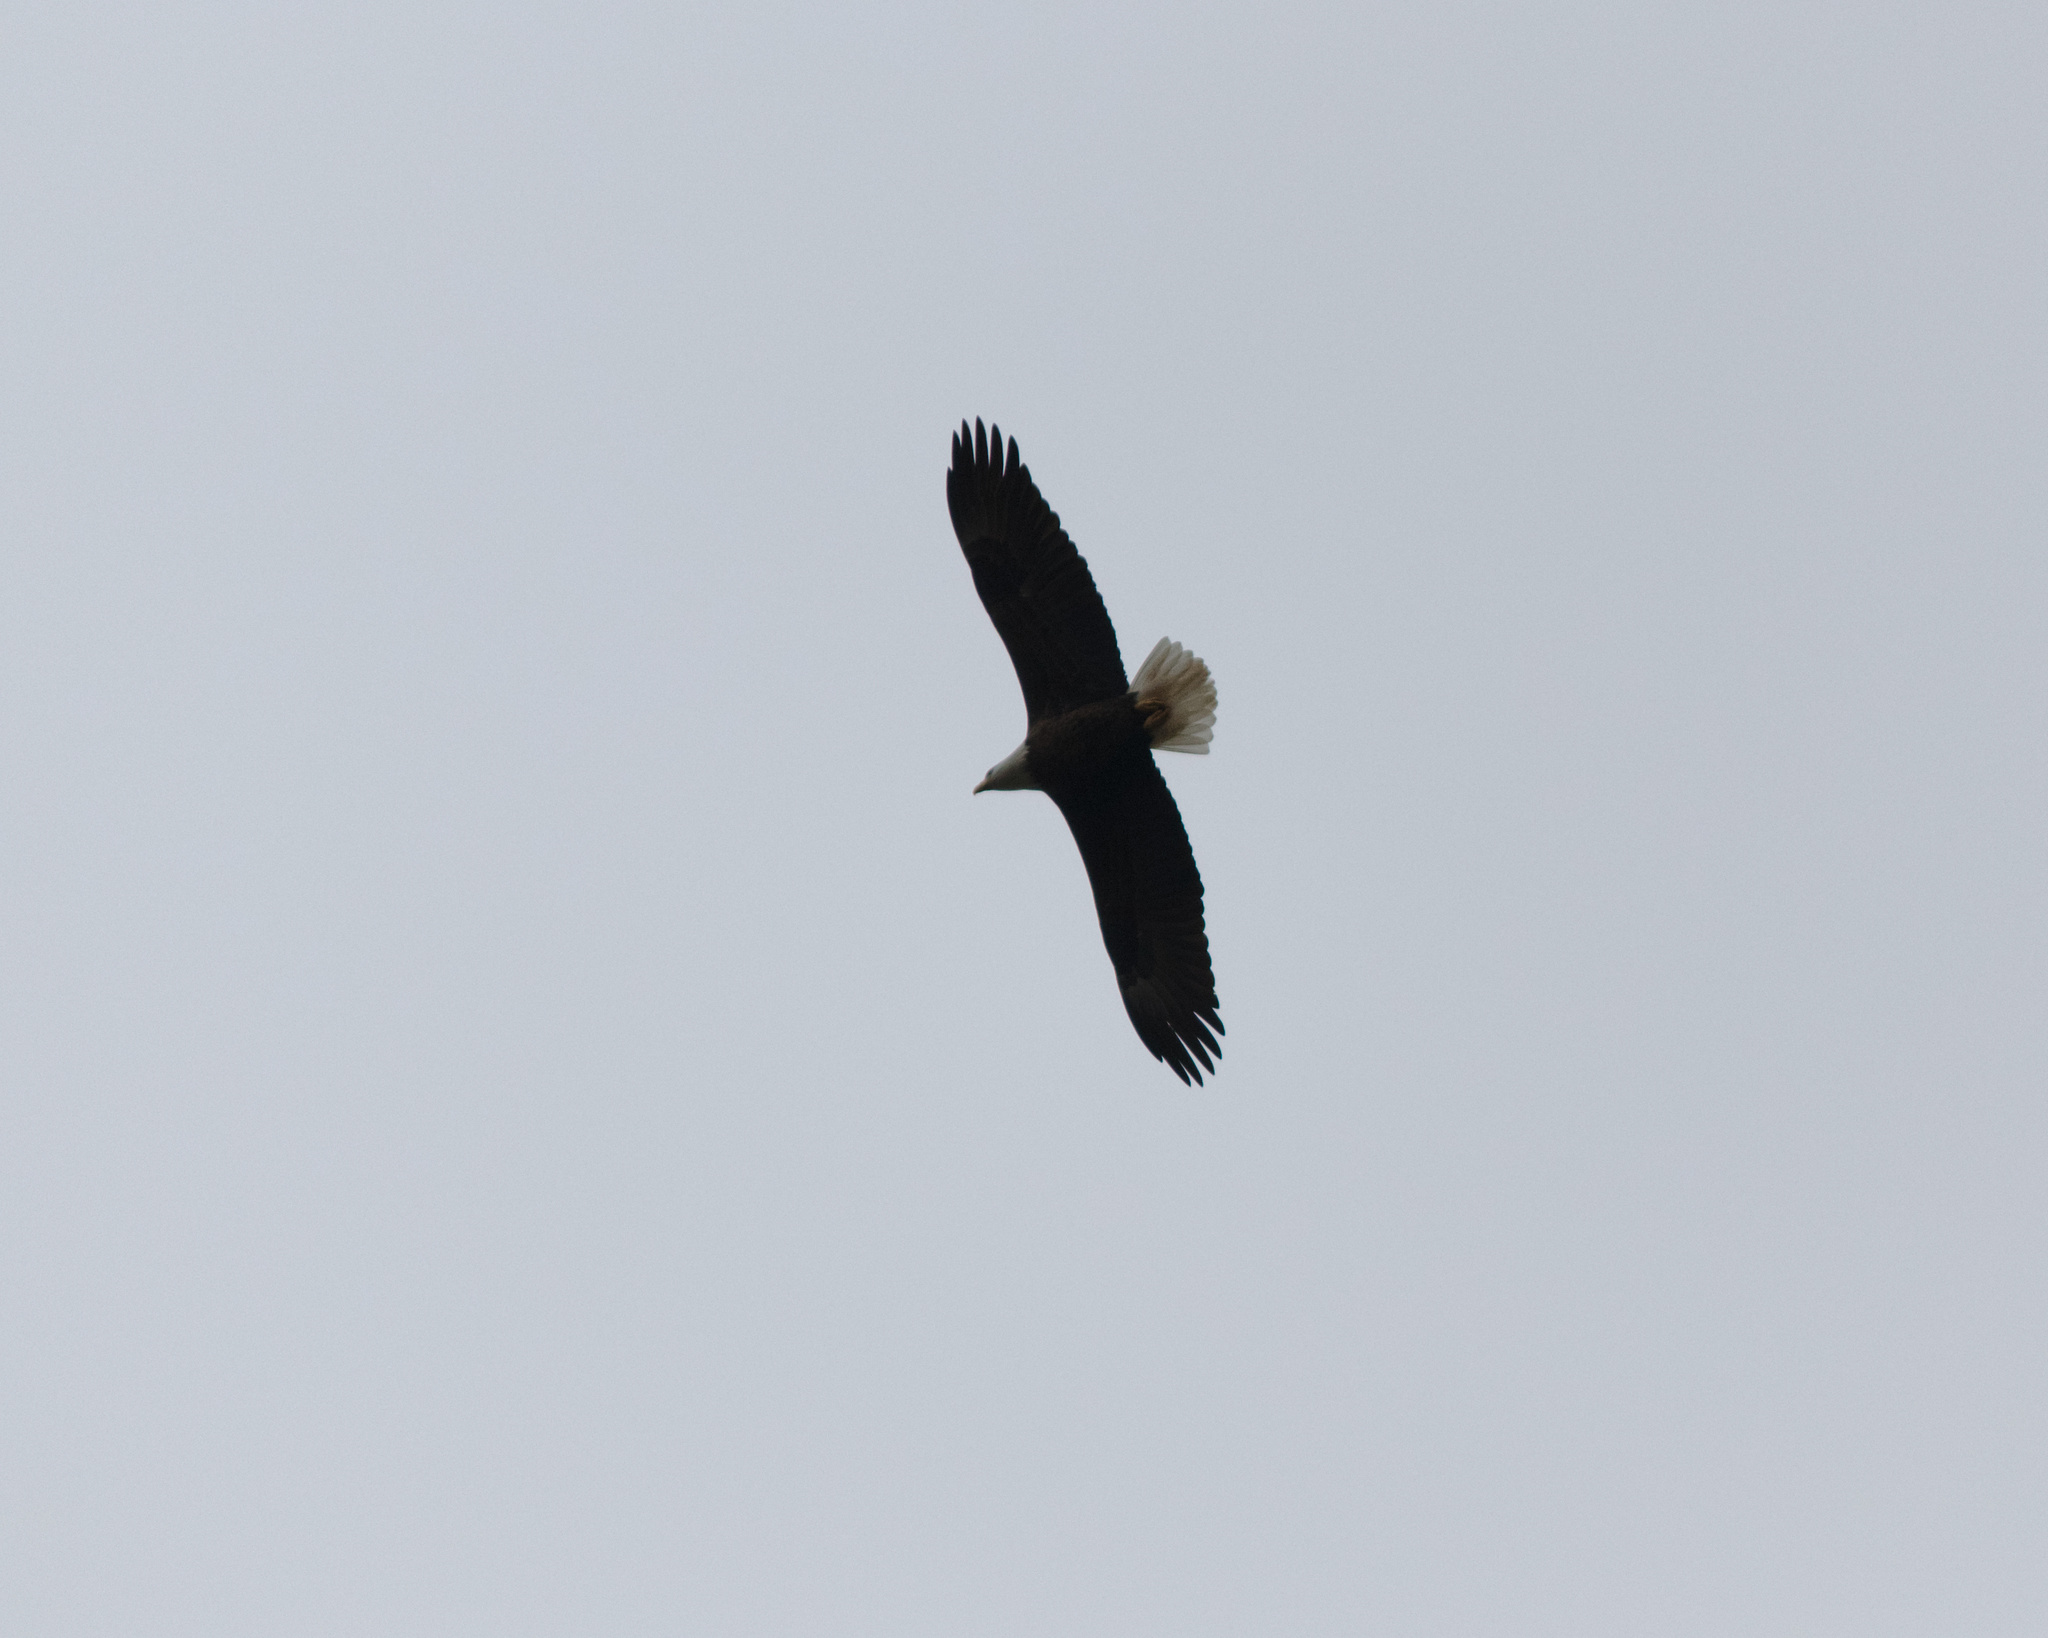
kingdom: Animalia
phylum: Chordata
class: Aves
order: Accipitriformes
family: Accipitridae
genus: Haliaeetus
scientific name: Haliaeetus leucocephalus
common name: Bald eagle
